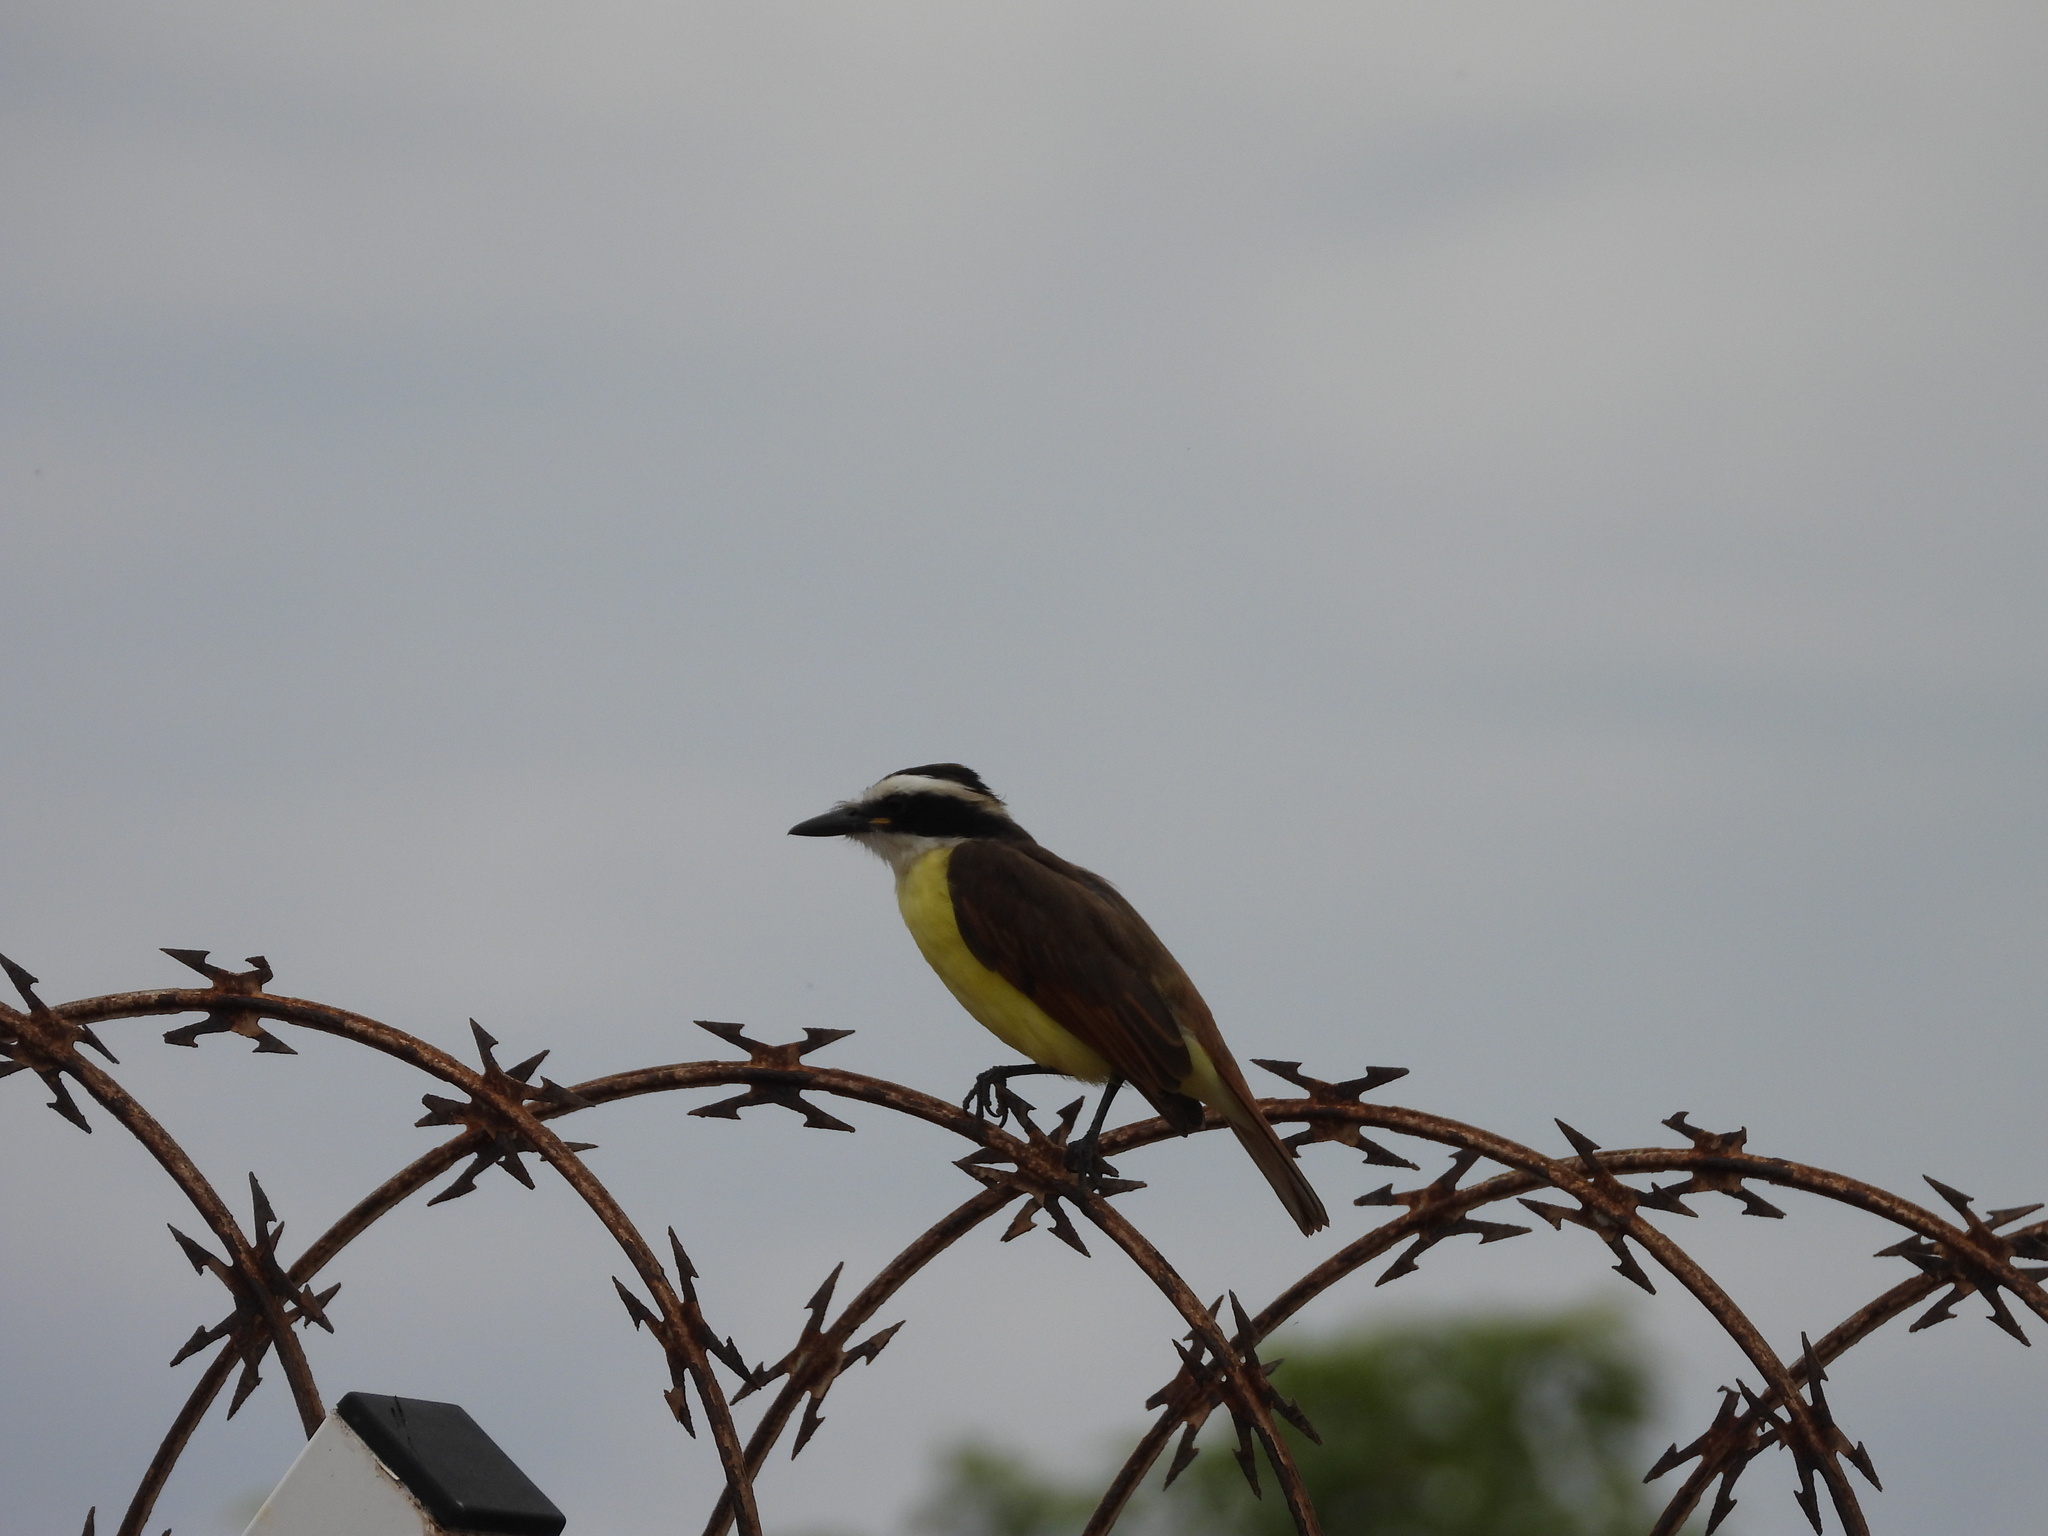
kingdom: Animalia
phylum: Chordata
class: Aves
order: Passeriformes
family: Tyrannidae
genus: Pitangus
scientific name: Pitangus sulphuratus
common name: Great kiskadee
